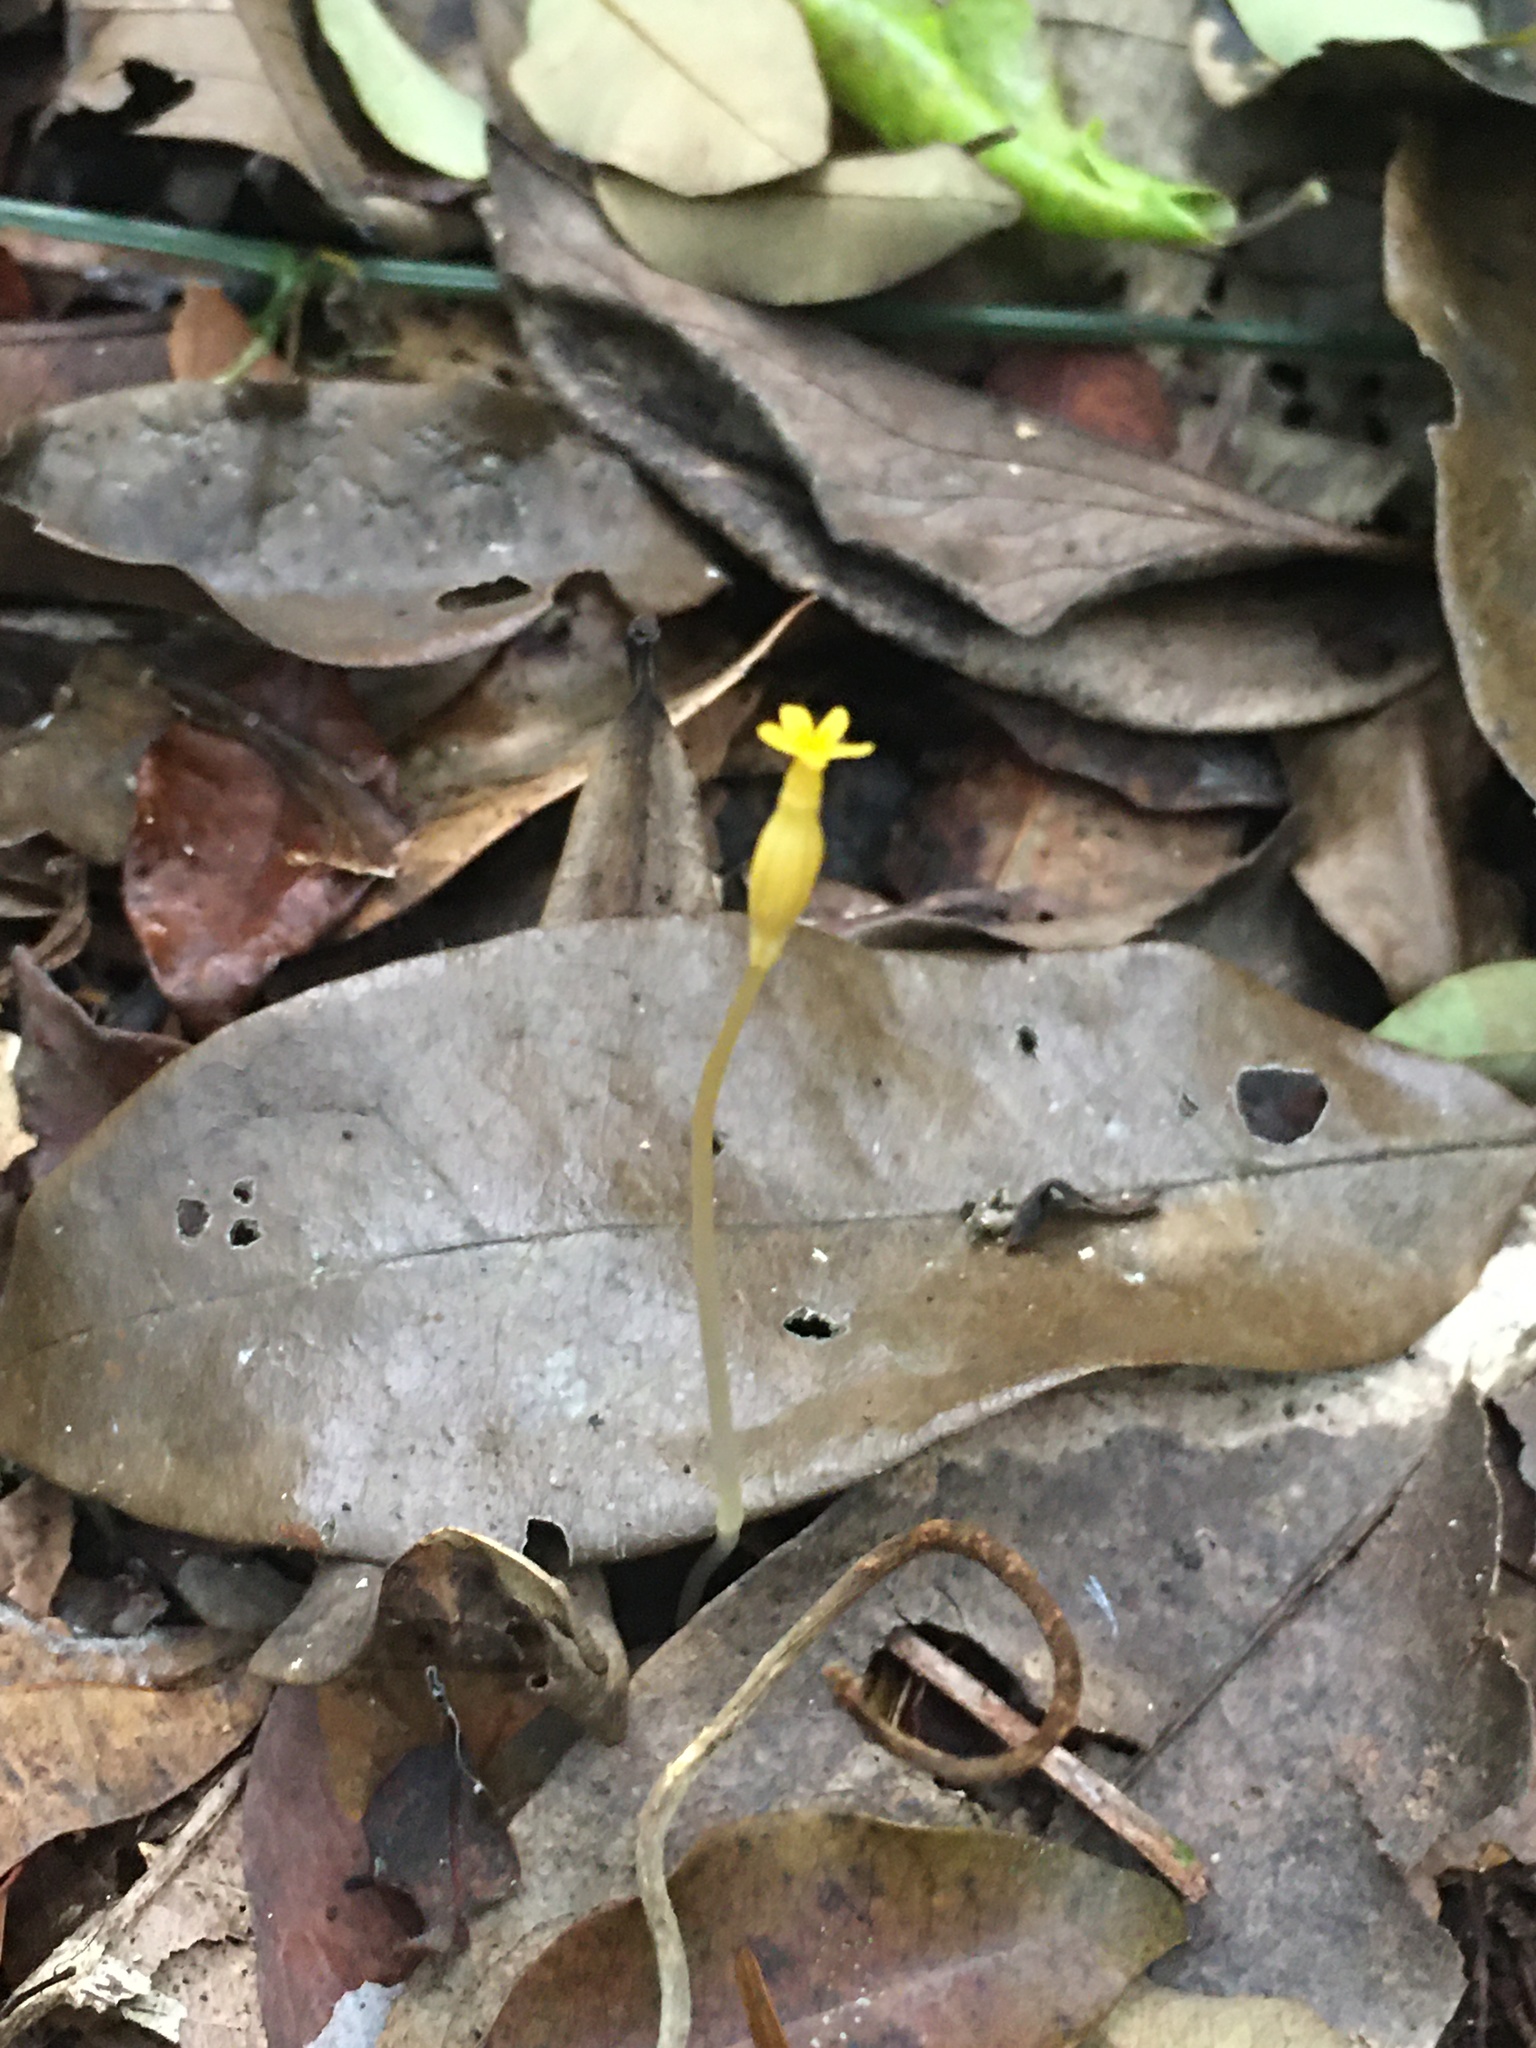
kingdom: Plantae
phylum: Tracheophyta
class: Magnoliopsida
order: Gentianales
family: Gentianaceae
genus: Voyria
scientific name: Voyria tenella
